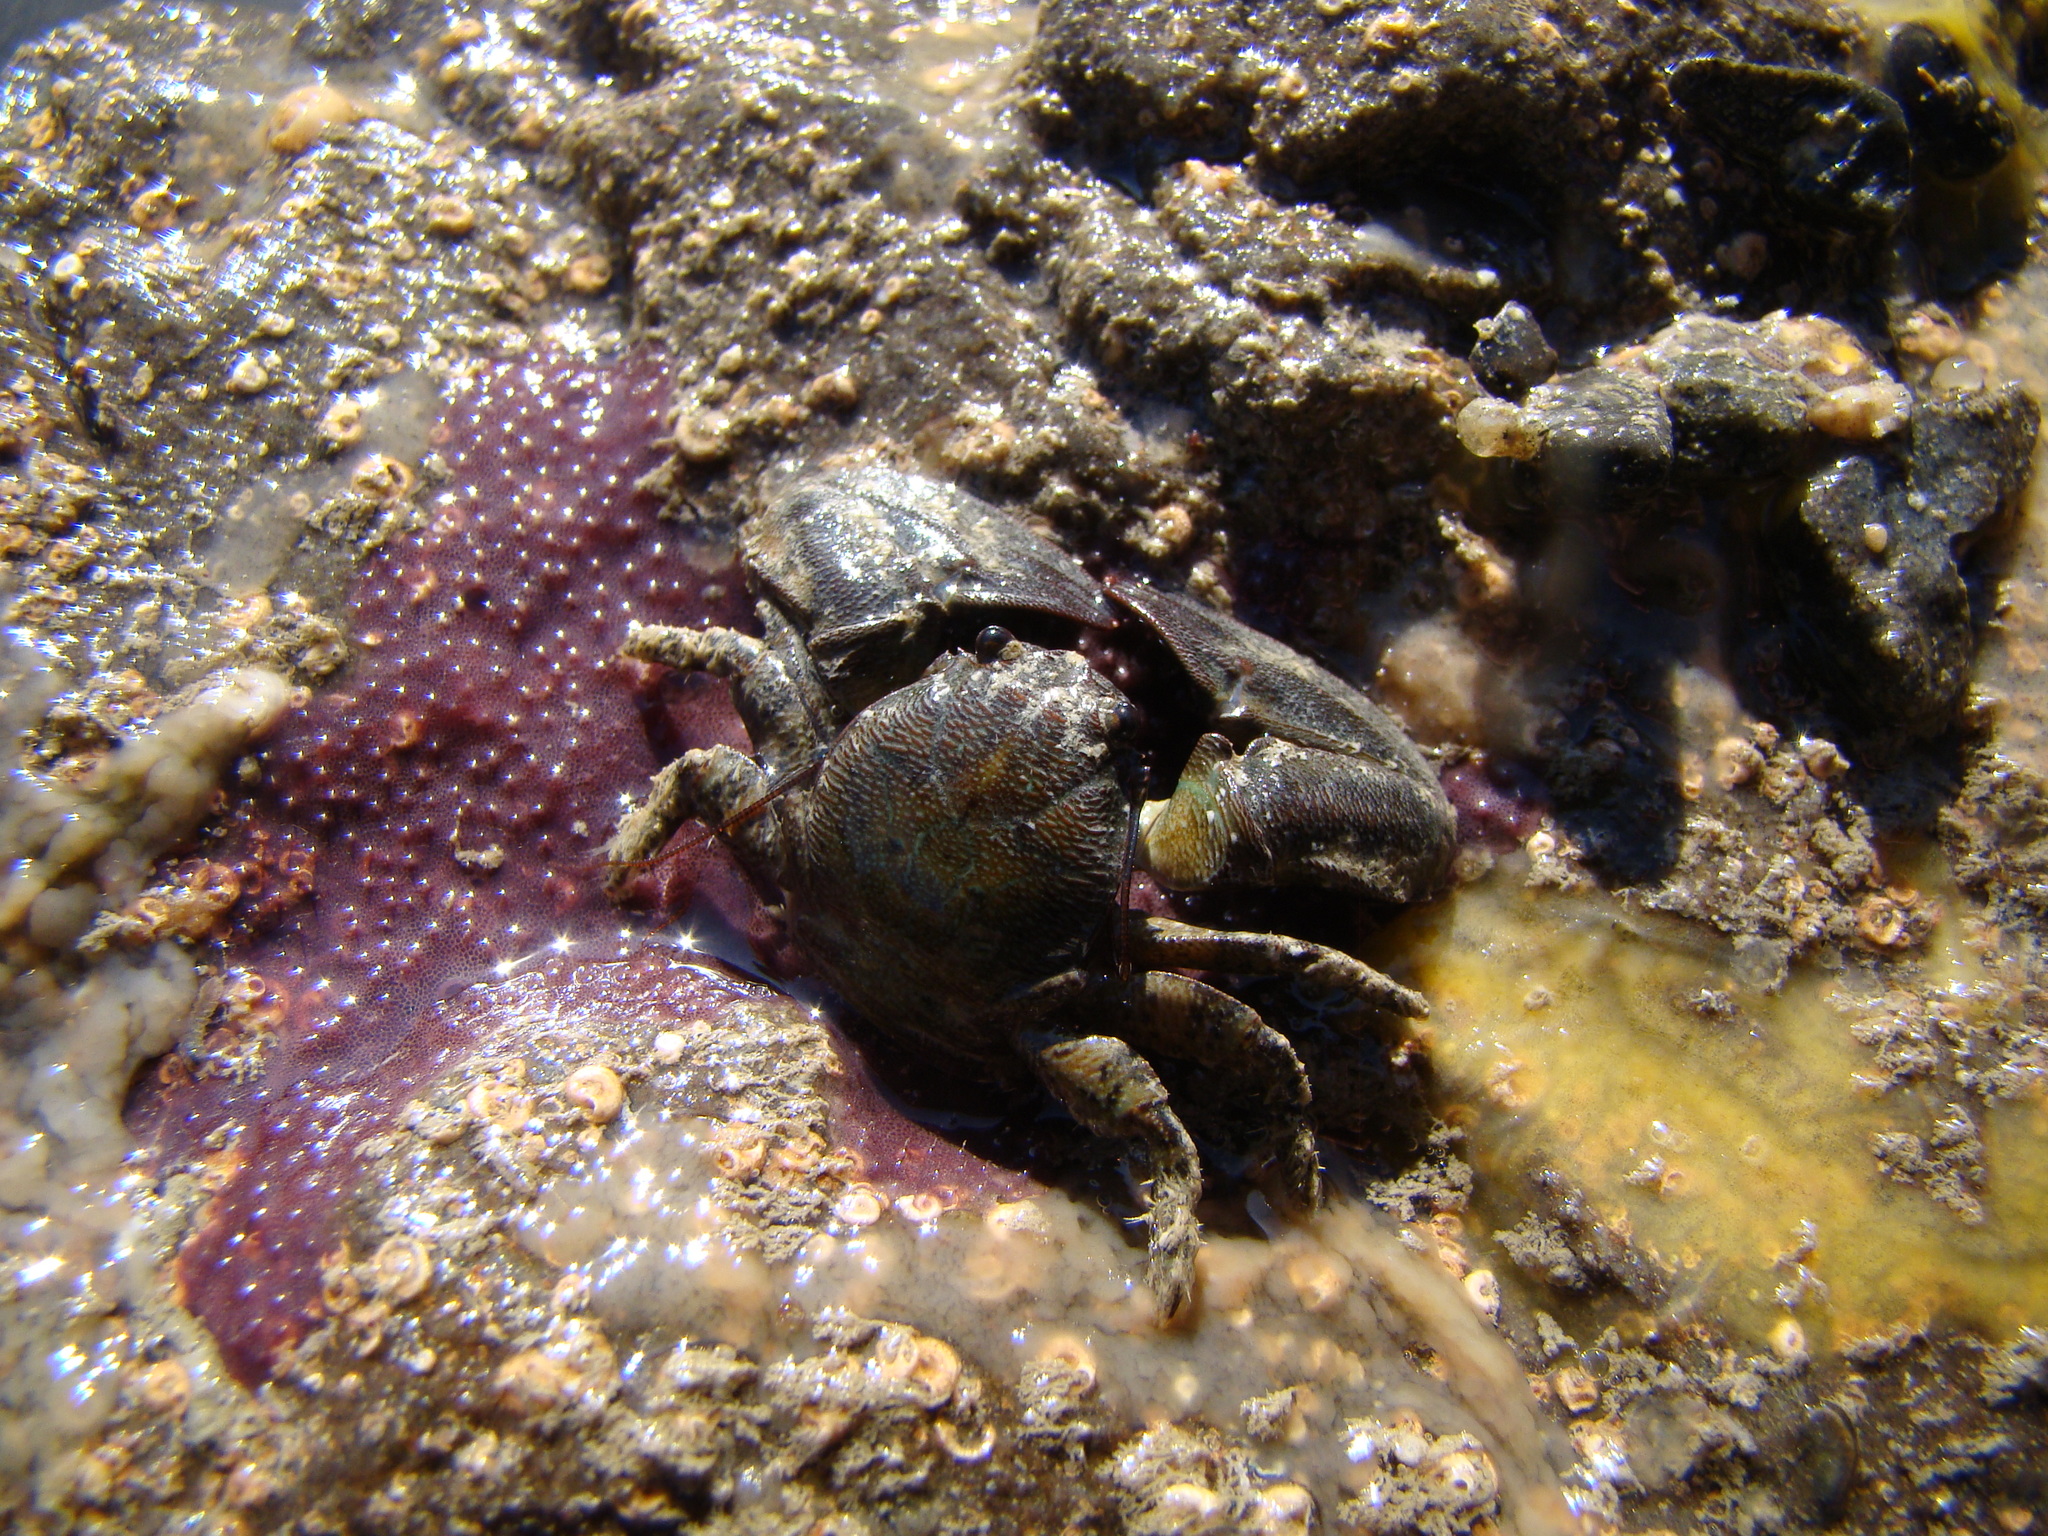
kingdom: Animalia
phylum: Arthropoda
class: Malacostraca
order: Decapoda
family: Porcellanidae
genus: Petrolisthes
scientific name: Petrolisthes elongatus
